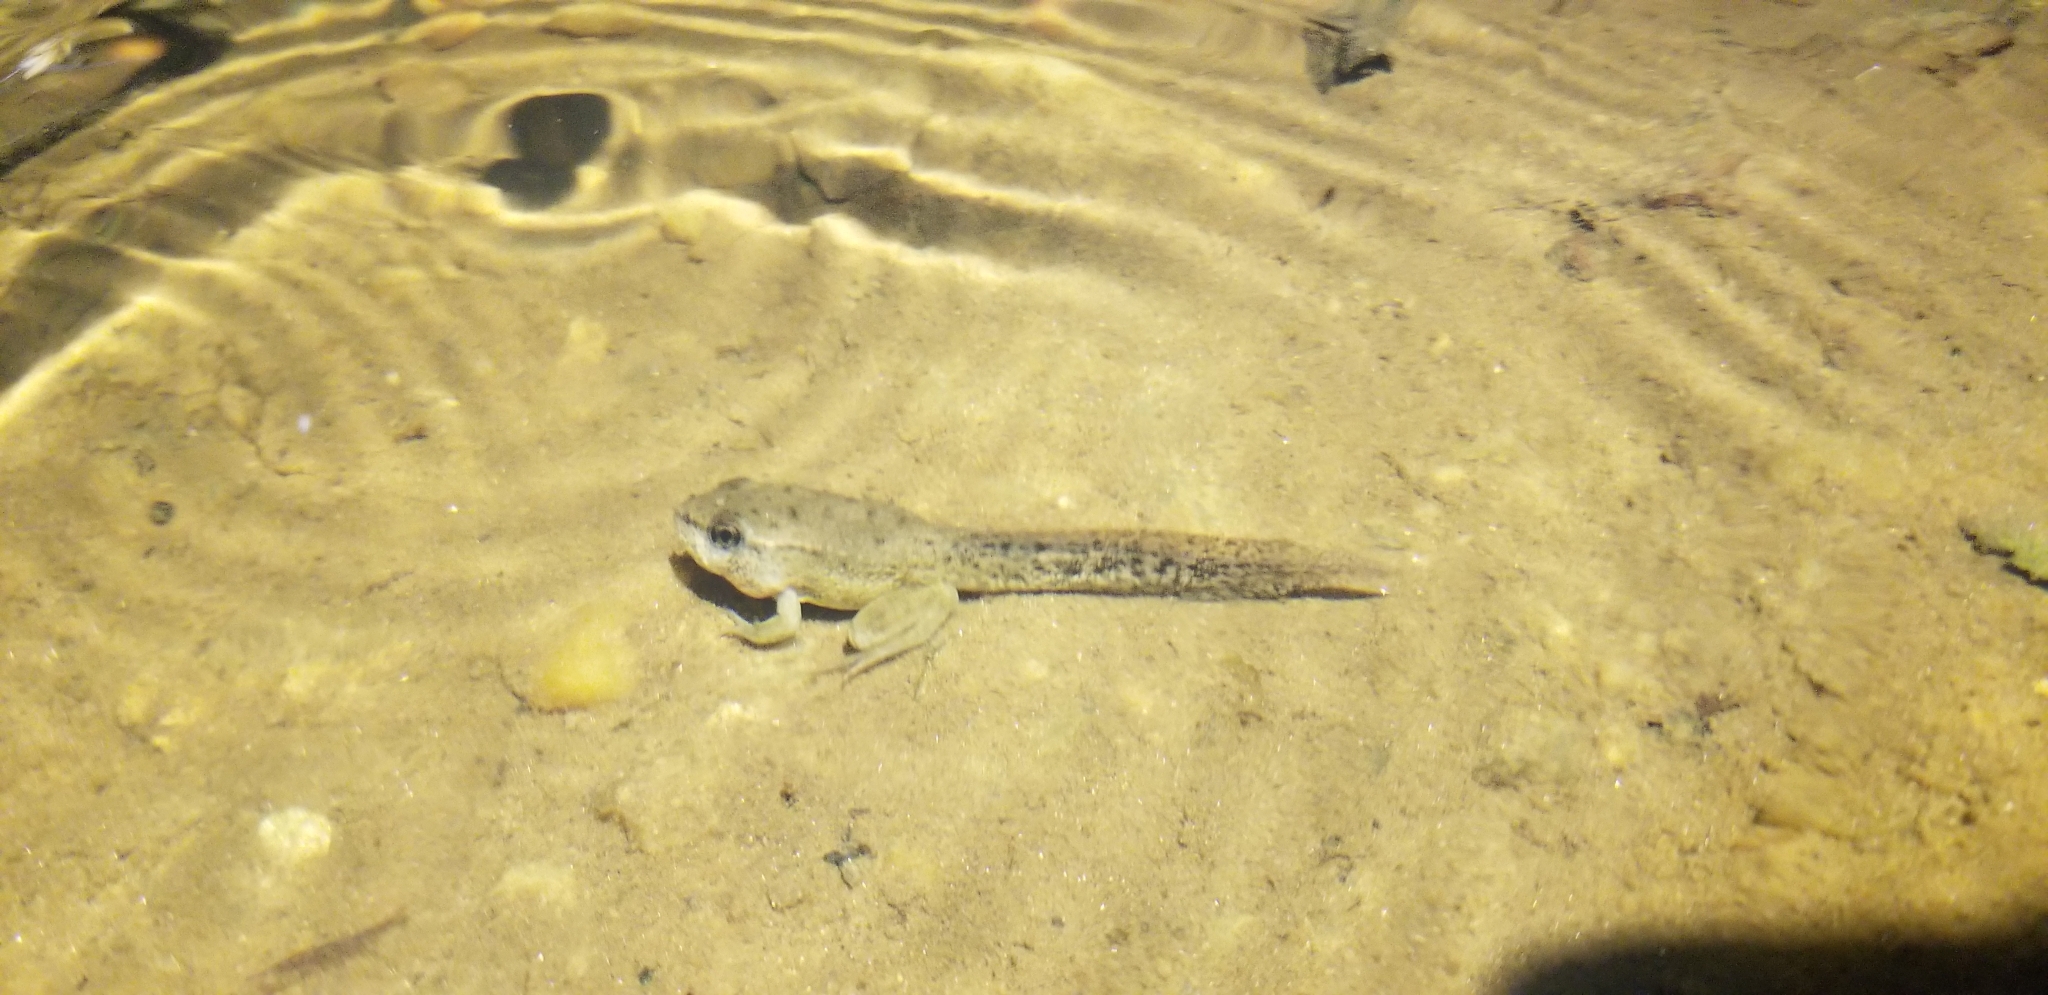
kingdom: Animalia
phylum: Chordata
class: Amphibia
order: Anura
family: Ranidae
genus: Lithobates
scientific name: Lithobates clamitans
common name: Green frog
